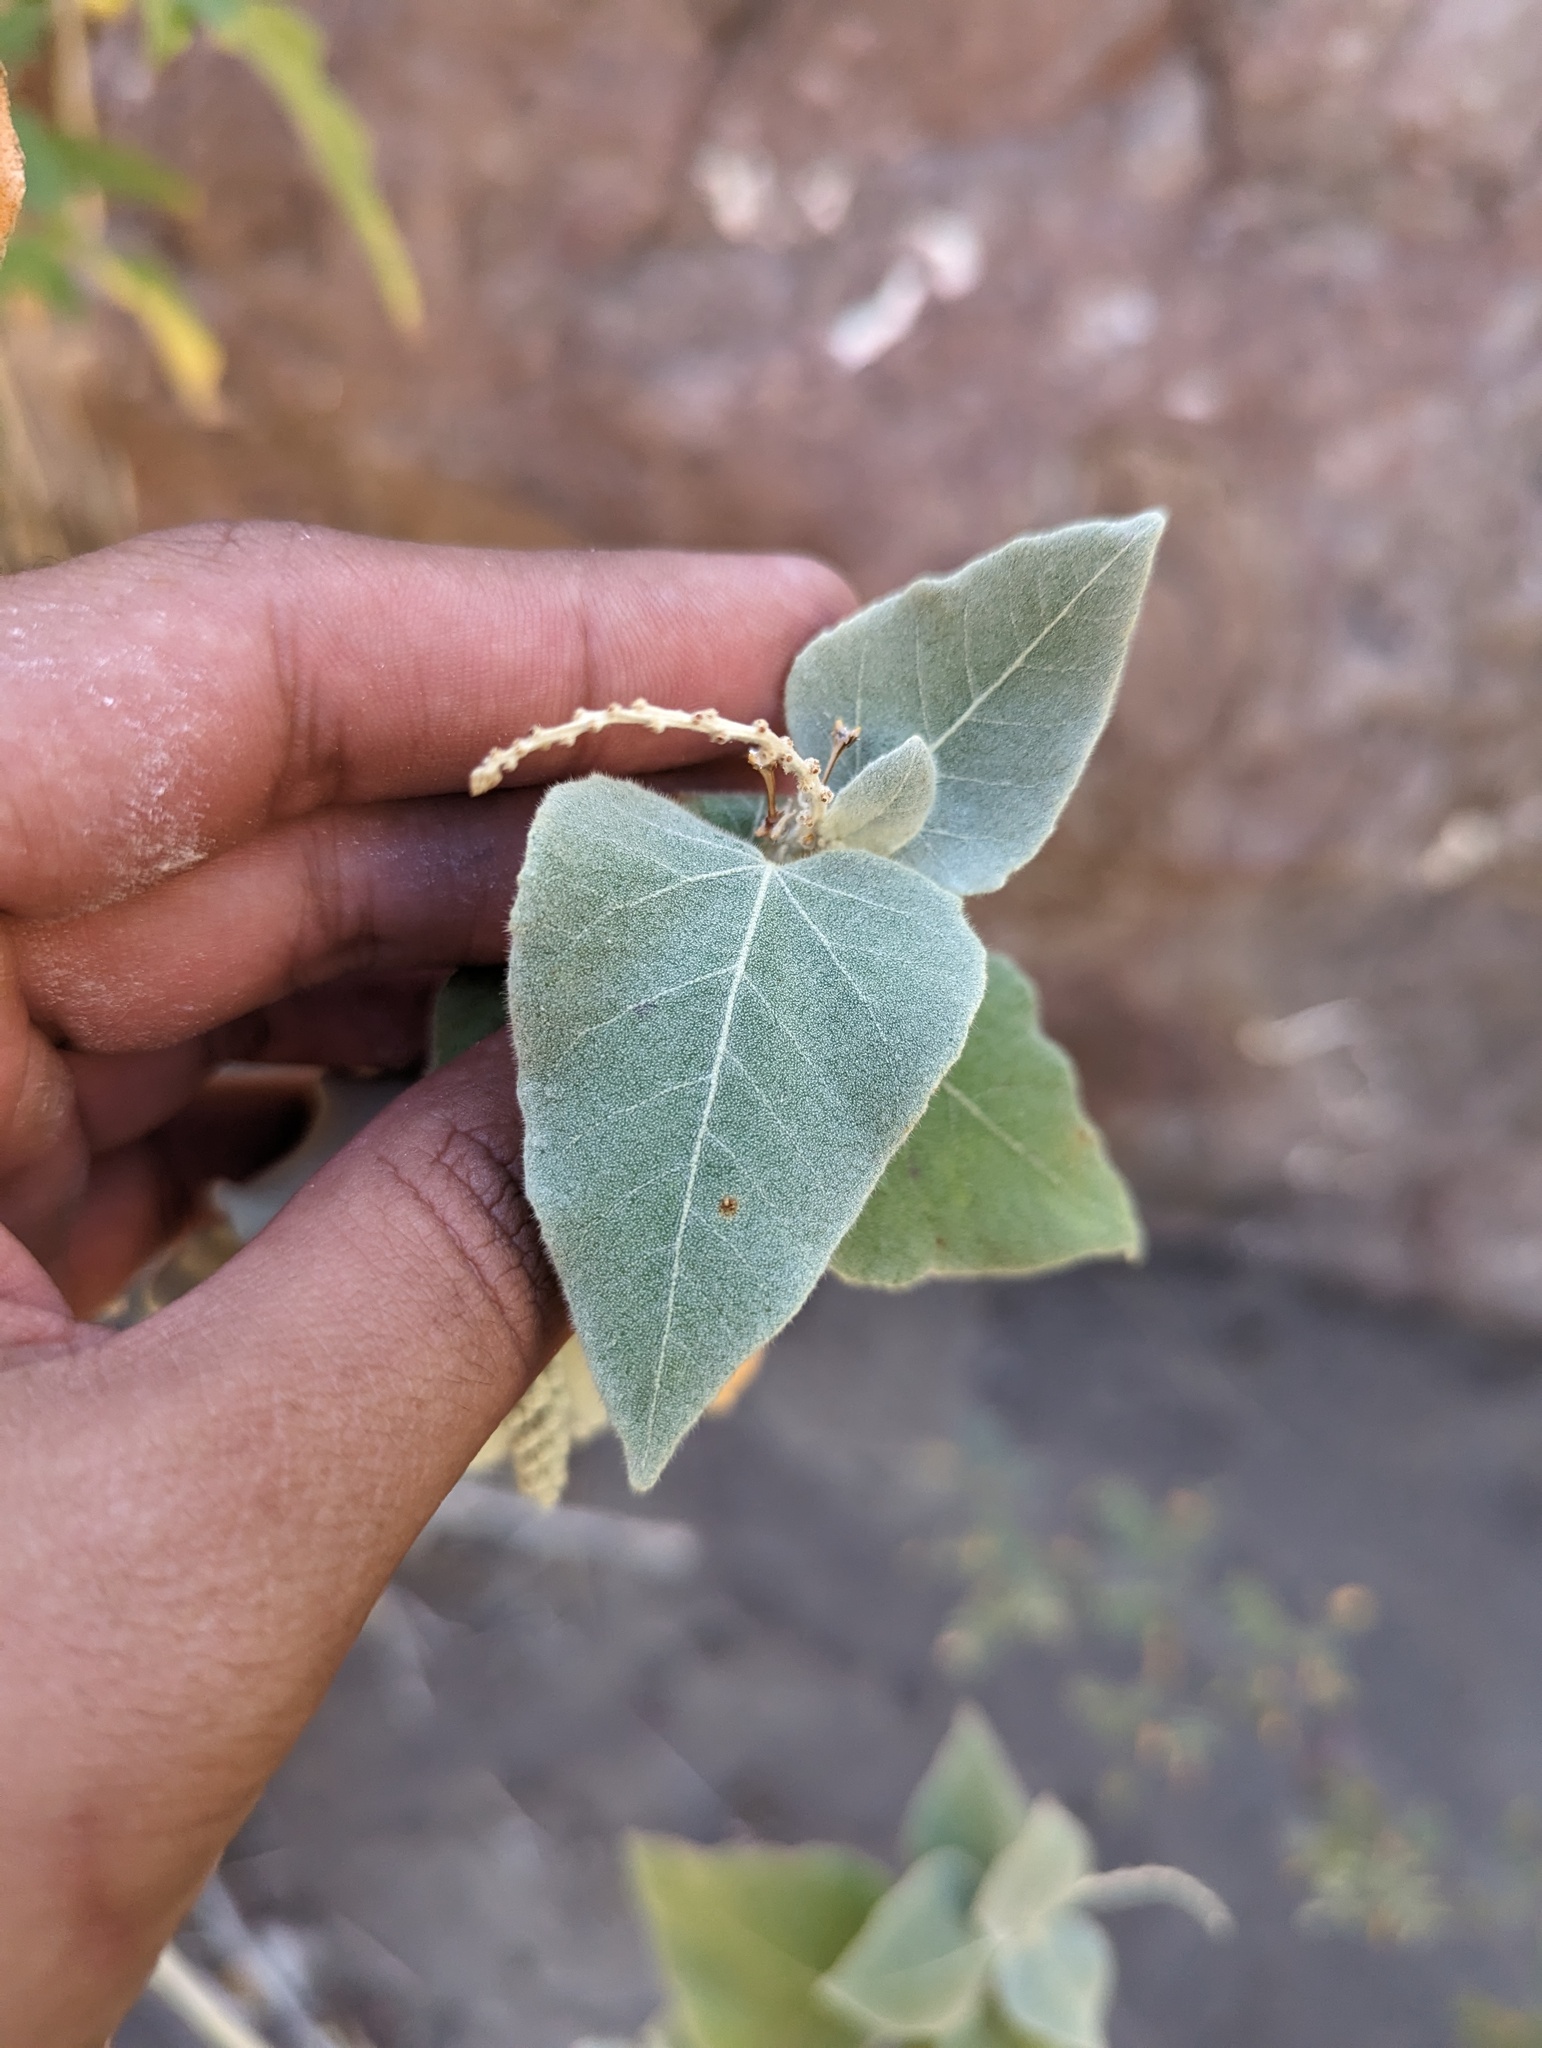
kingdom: Plantae
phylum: Tracheophyta
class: Magnoliopsida
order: Malpighiales
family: Euphorbiaceae
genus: Croton
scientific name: Croton magdalenae
